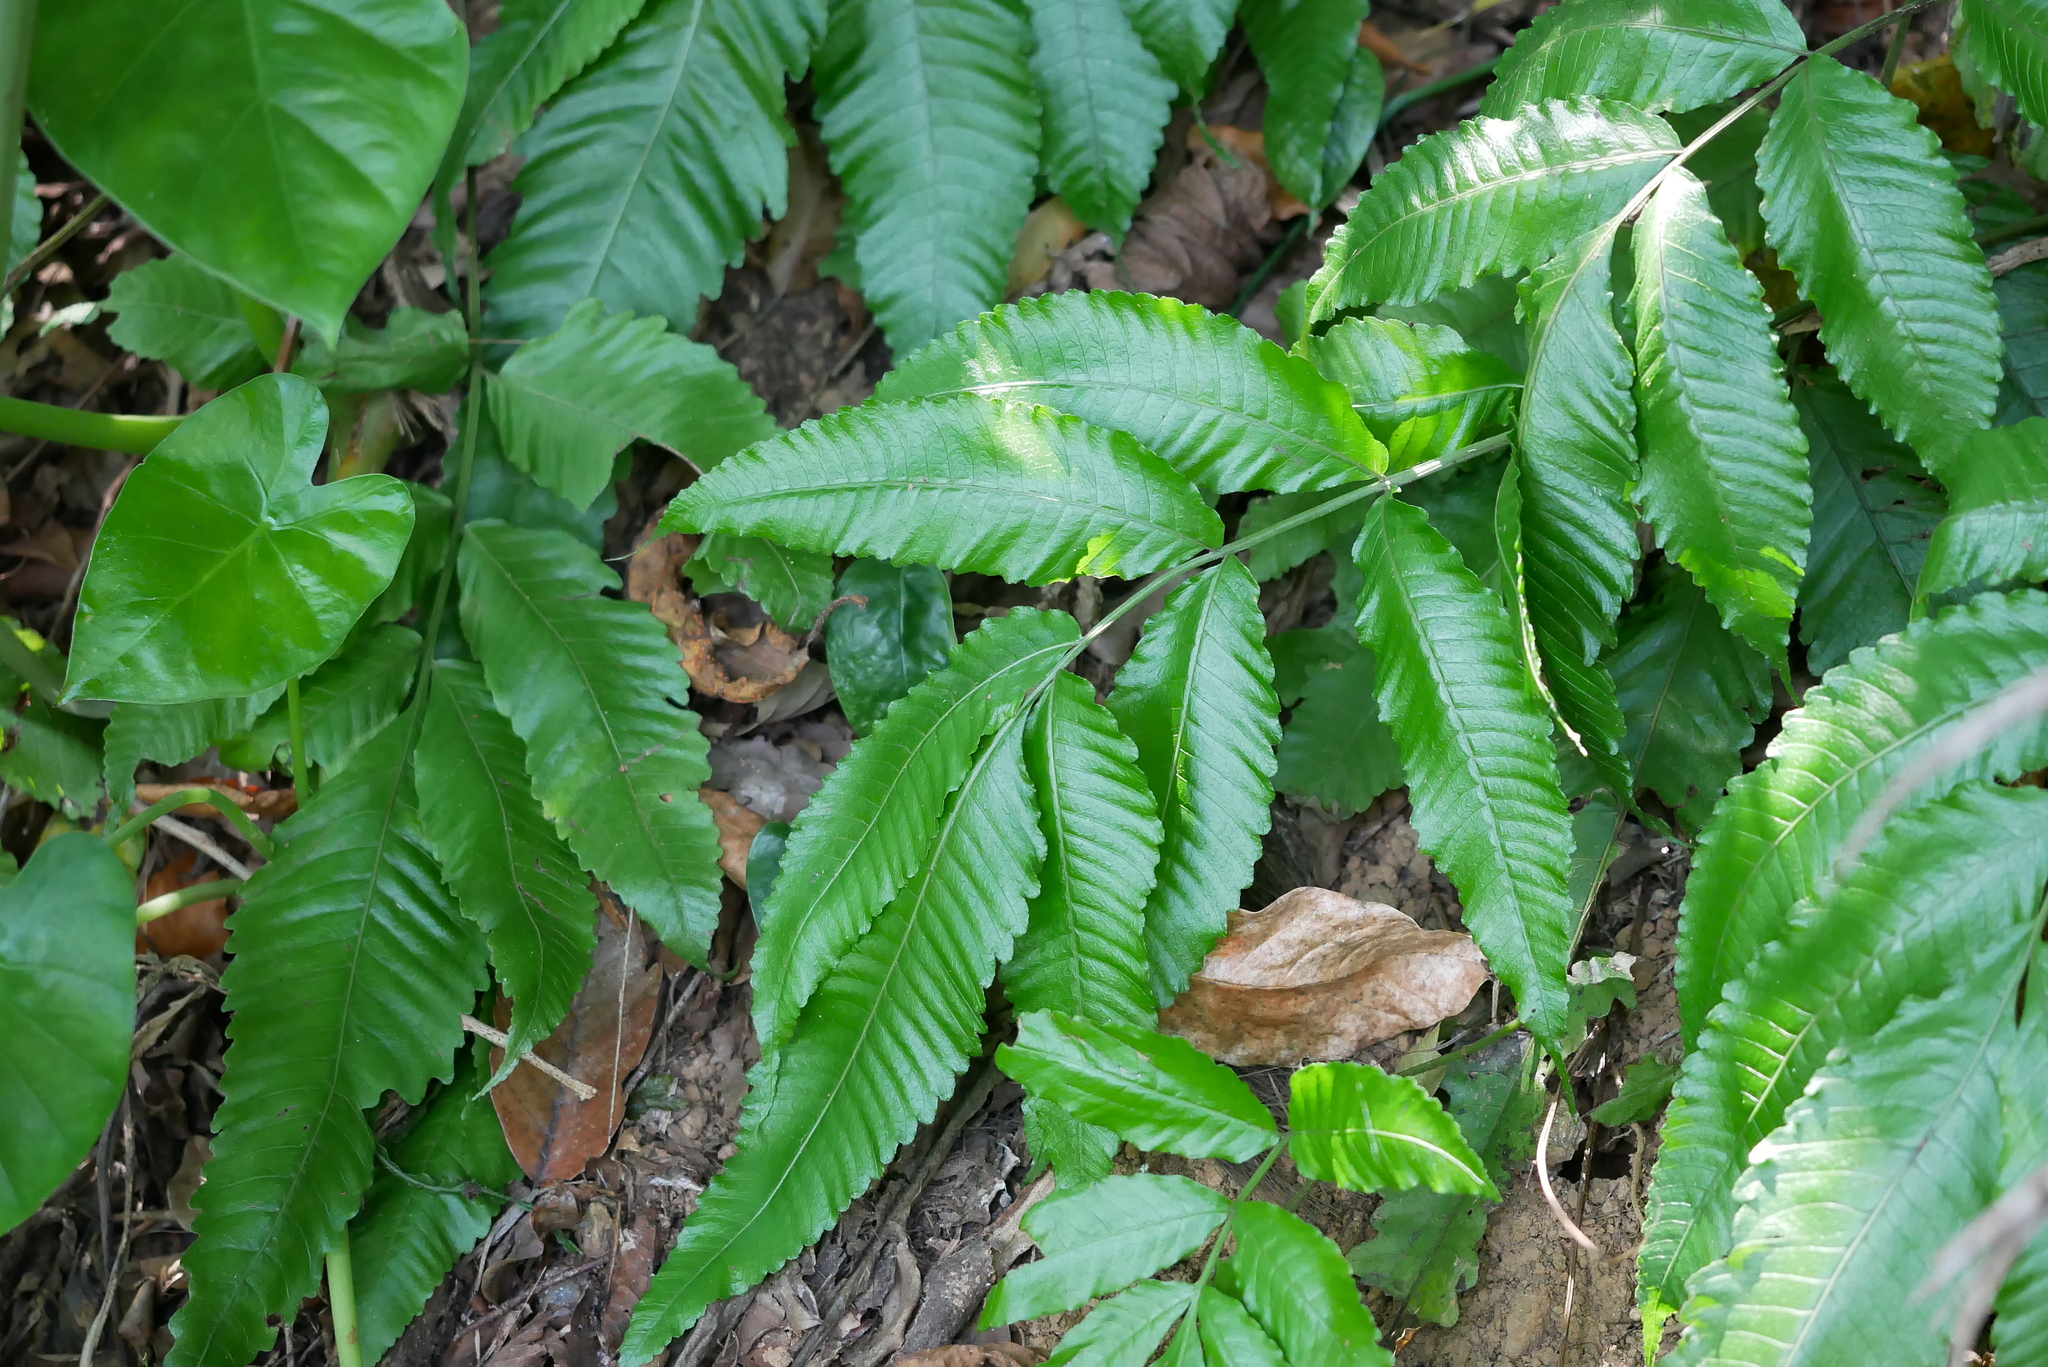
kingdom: Plantae
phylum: Tracheophyta
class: Polypodiopsida
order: Polypodiales
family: Dryopteridaceae
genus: Bolbitis
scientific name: Bolbitis heteroclita
